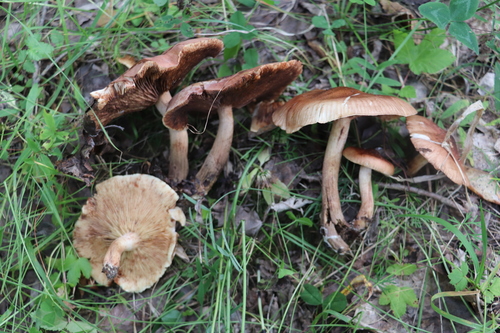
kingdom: Fungi
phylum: Basidiomycota
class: Agaricomycetes
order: Agaricales
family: Tricholomataceae
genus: Tricholoma
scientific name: Tricholoma fulvum
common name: Birch knight
